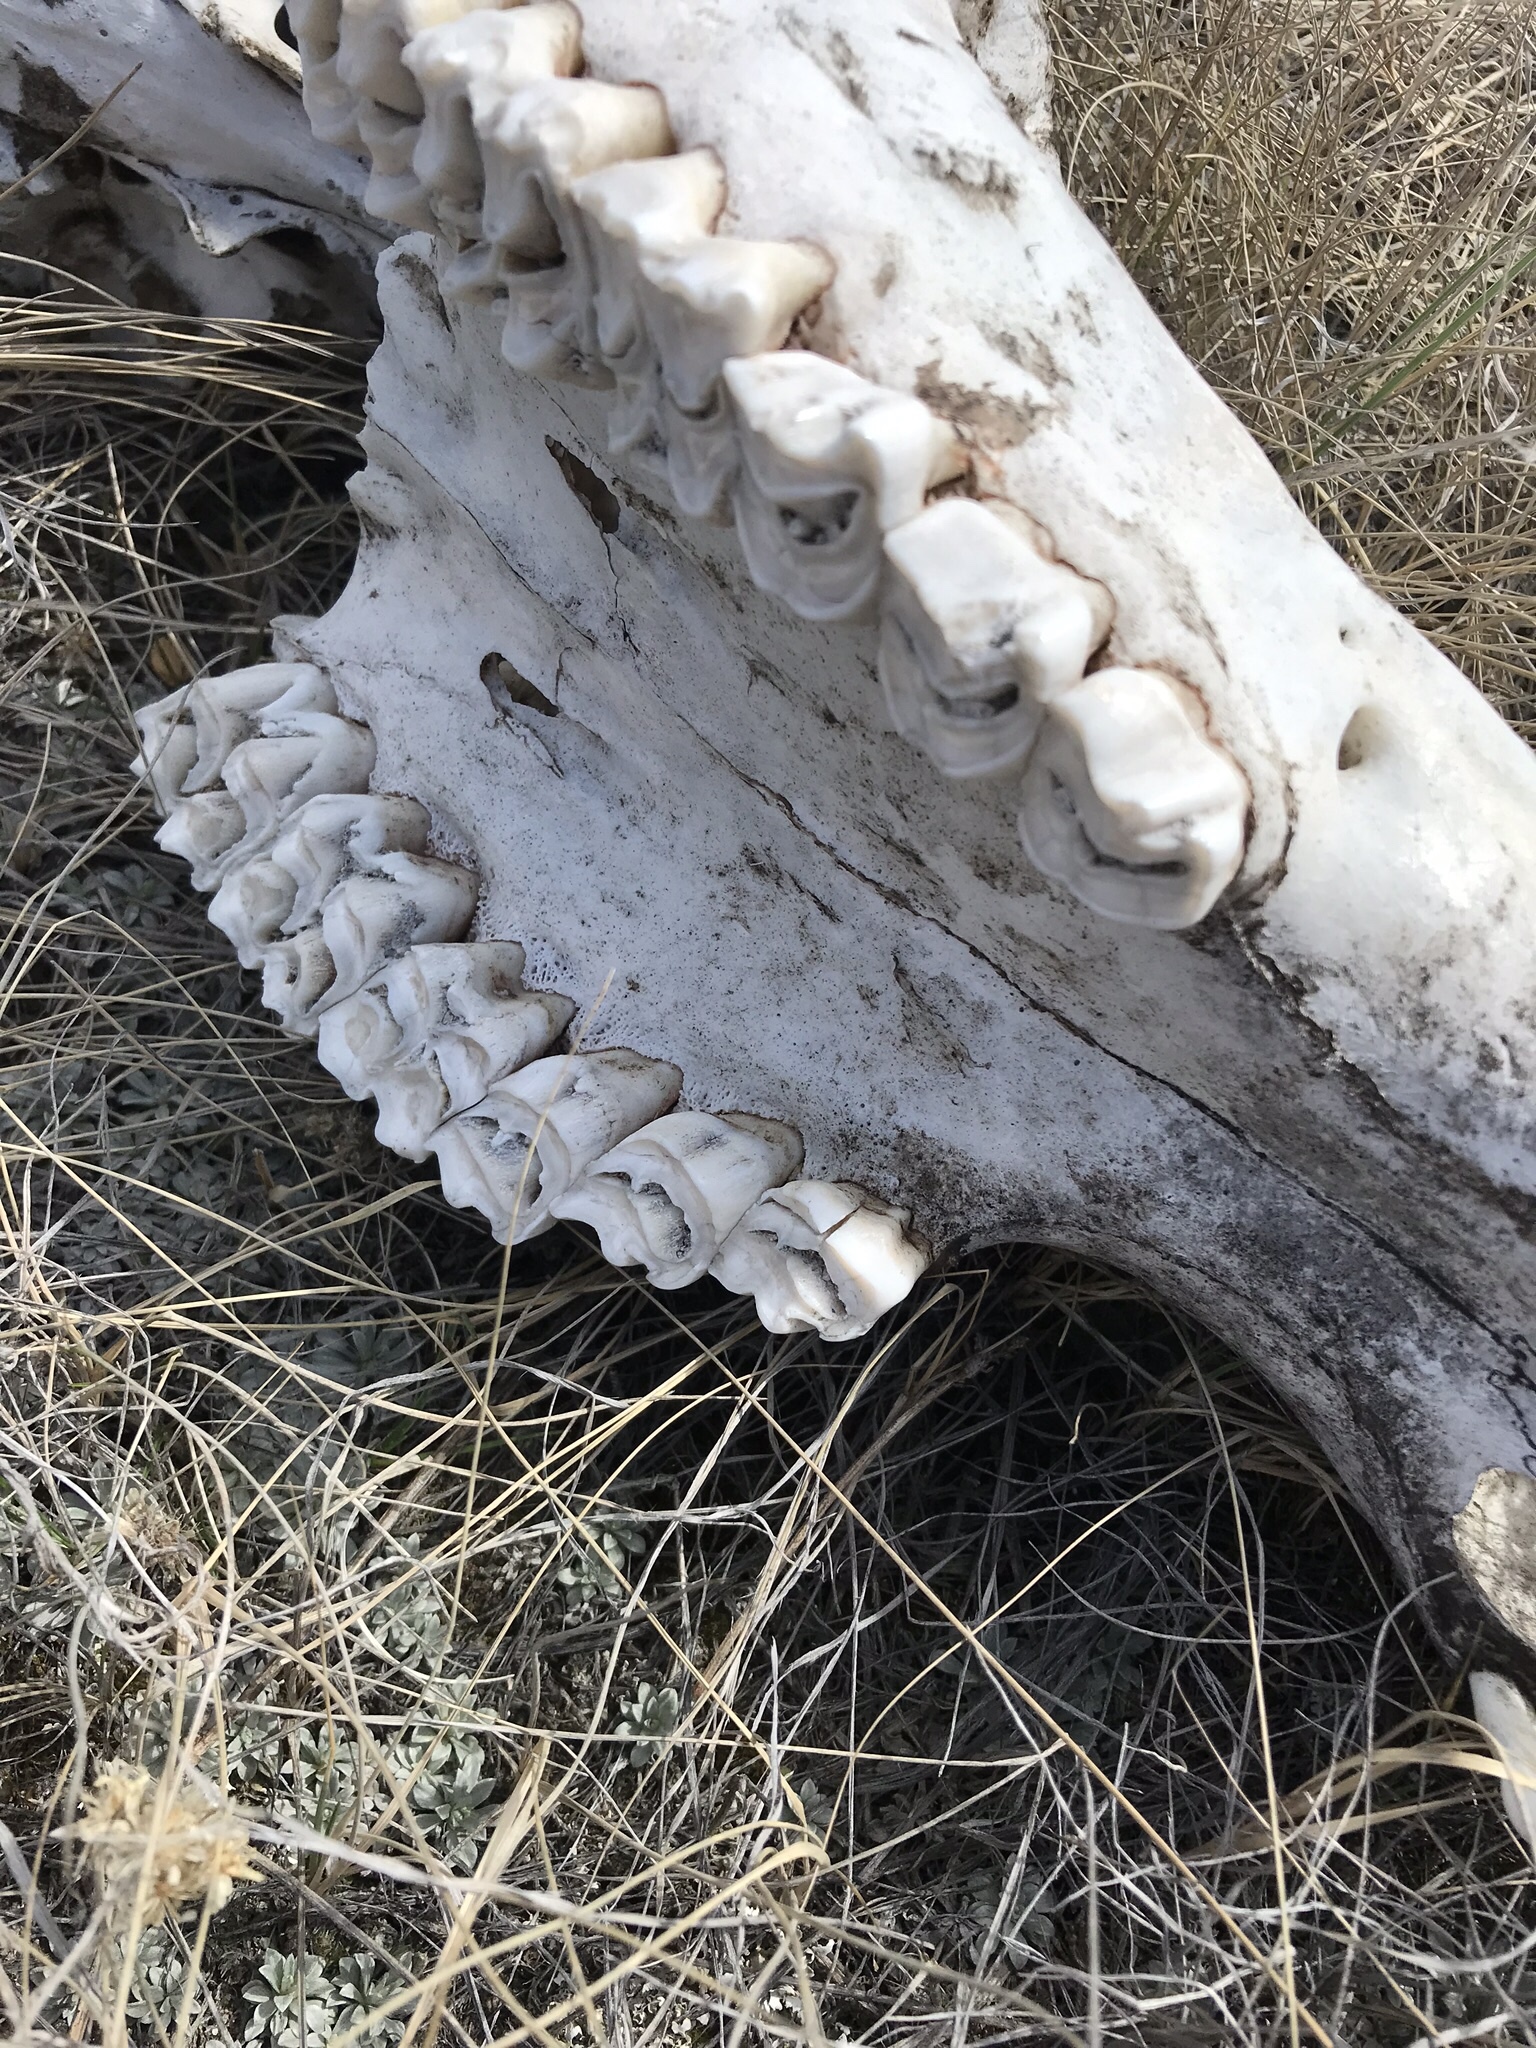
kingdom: Animalia
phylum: Chordata
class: Mammalia
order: Artiodactyla
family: Cervidae
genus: Cervus
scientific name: Cervus elaphus
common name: Red deer
